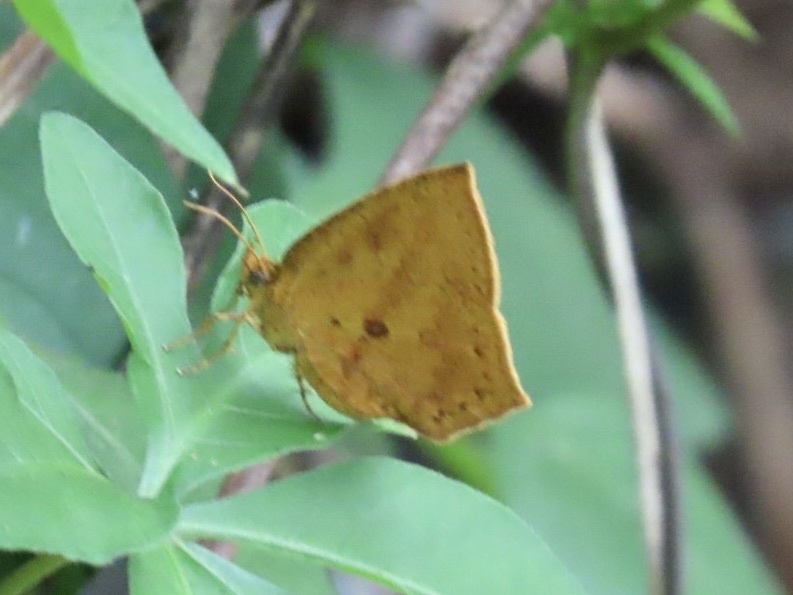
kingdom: Animalia
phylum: Arthropoda
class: Insecta
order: Lepidoptera
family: Callidulidae
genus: Tetragonus
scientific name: Tetragonus catamitus
